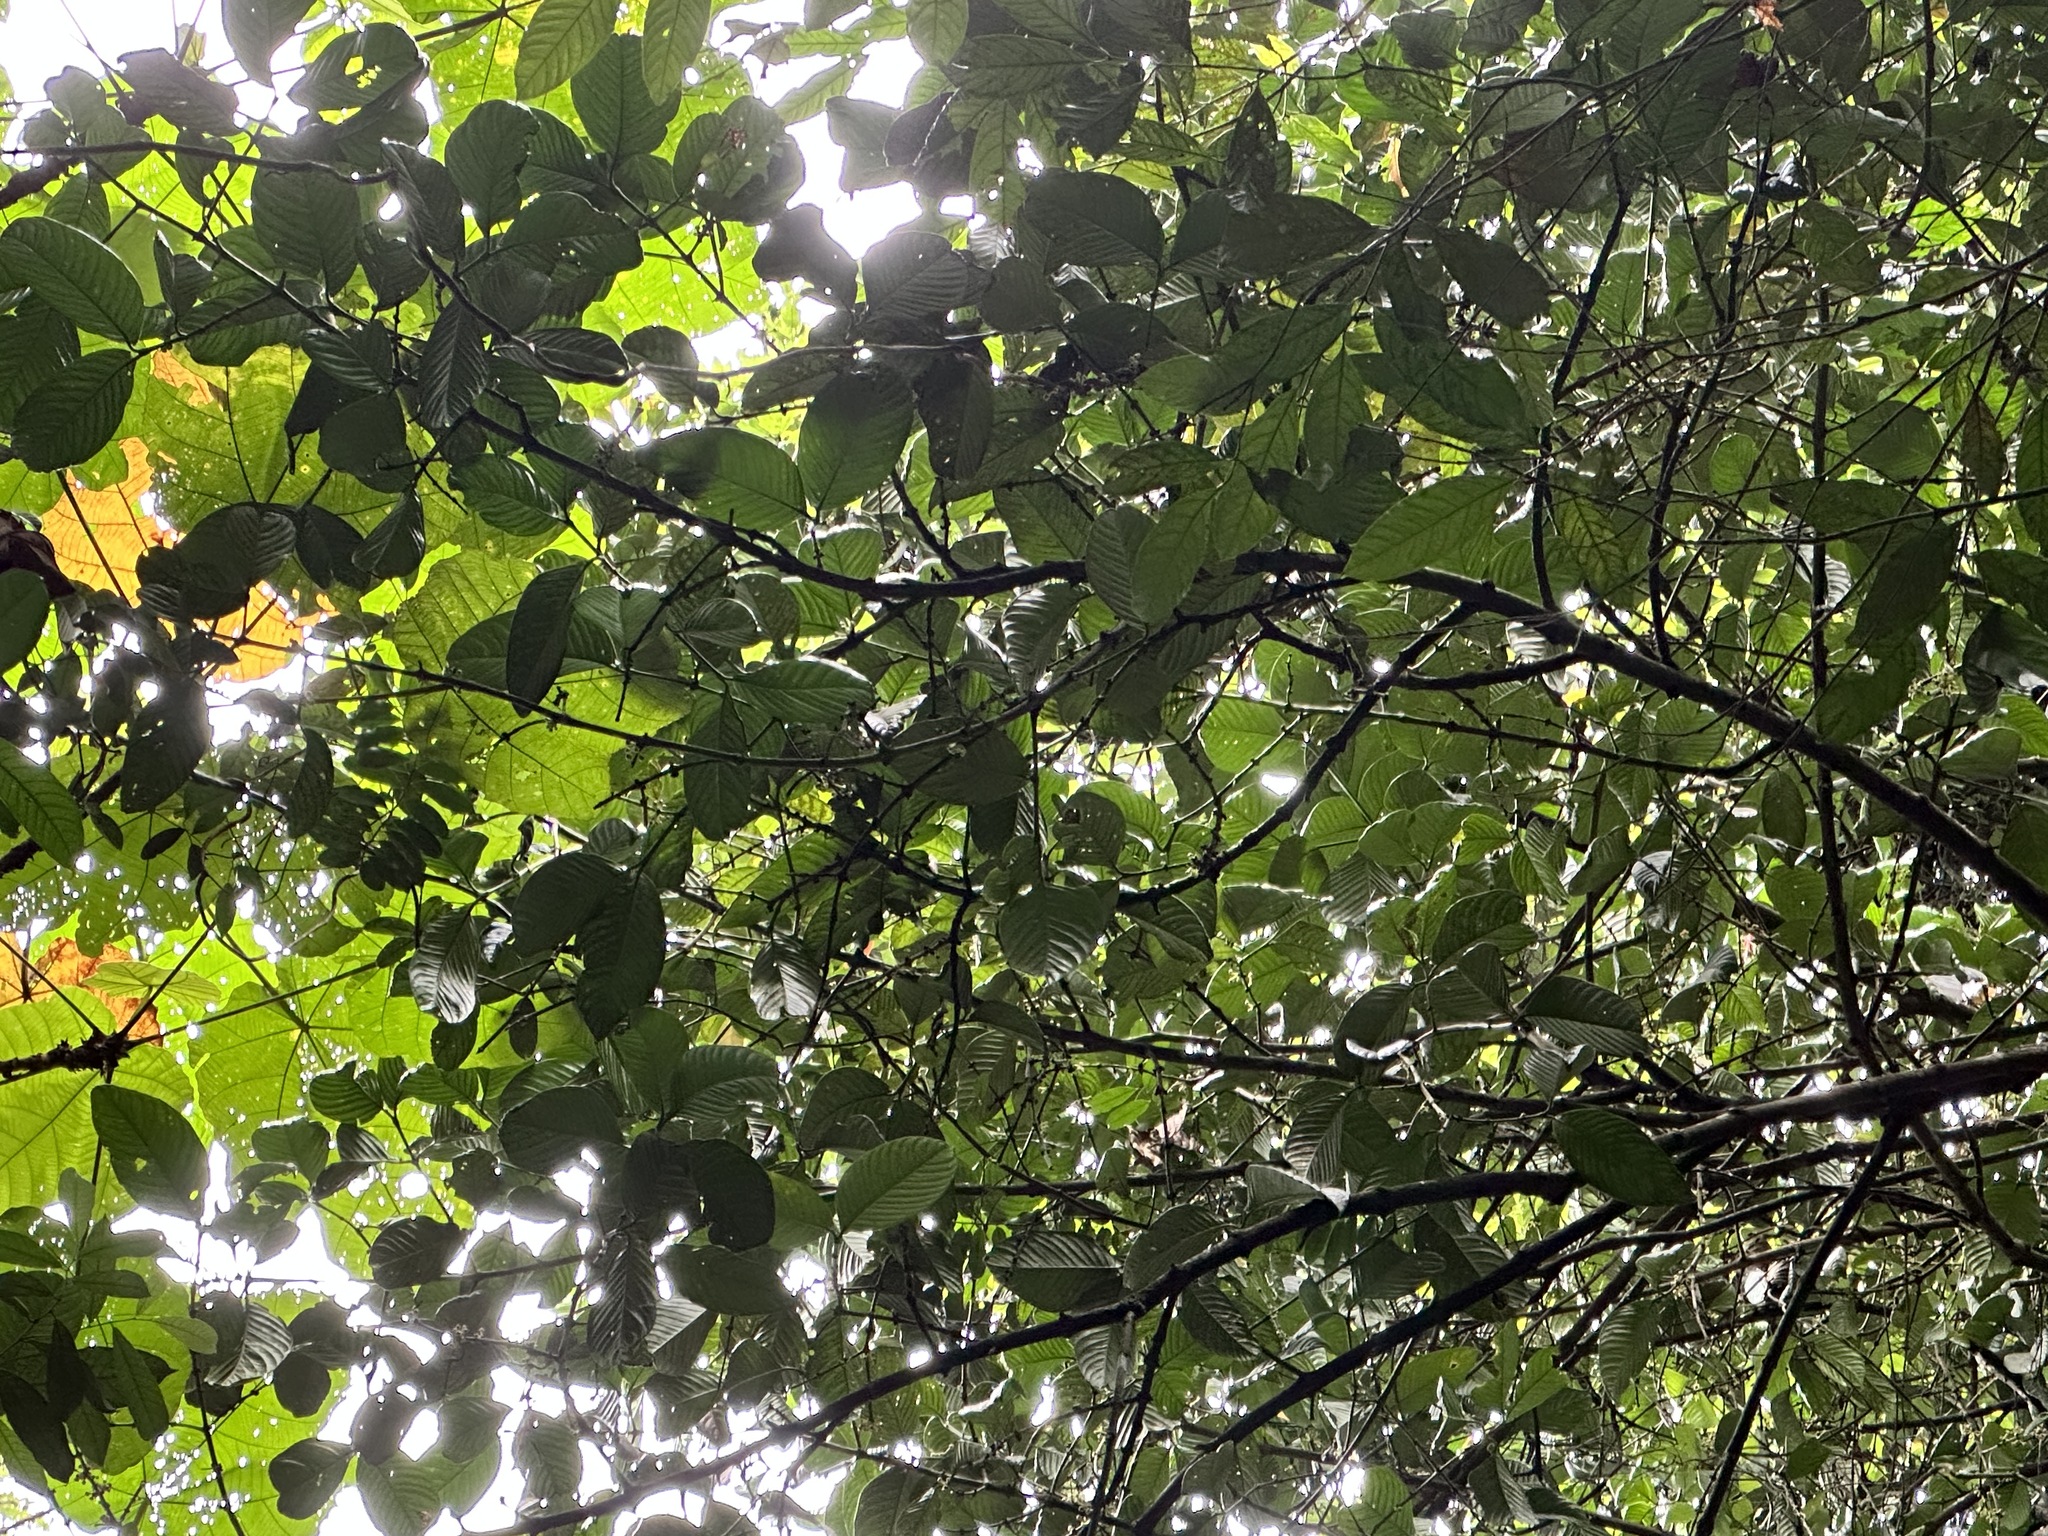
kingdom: Plantae
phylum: Tracheophyta
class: Magnoliopsida
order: Malpighiales
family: Clusiaceae
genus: Garcinia
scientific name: Garcinia griffithii
